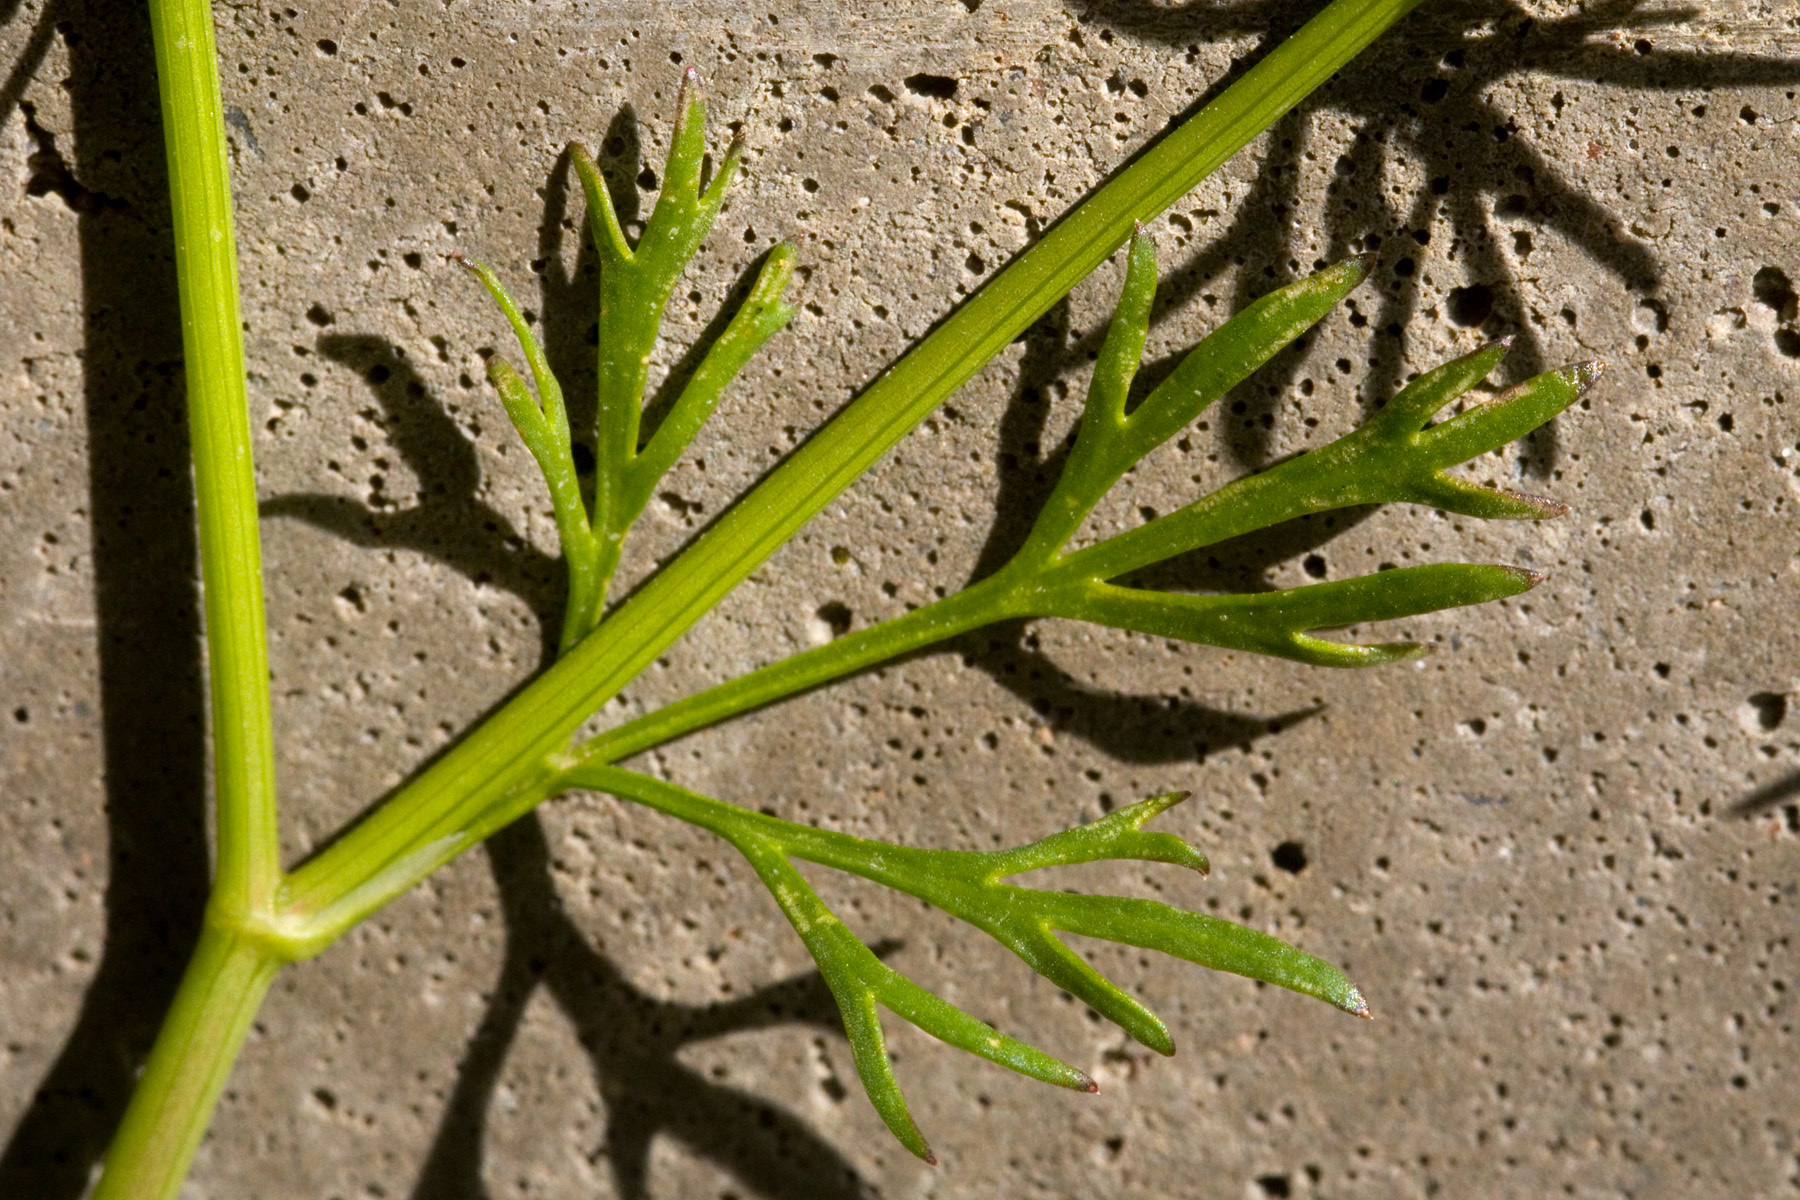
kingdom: Plantae
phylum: Tracheophyta
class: Magnoliopsida
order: Apiales
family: Apiaceae
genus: Cyclospermum
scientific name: Cyclospermum leptophyllum
